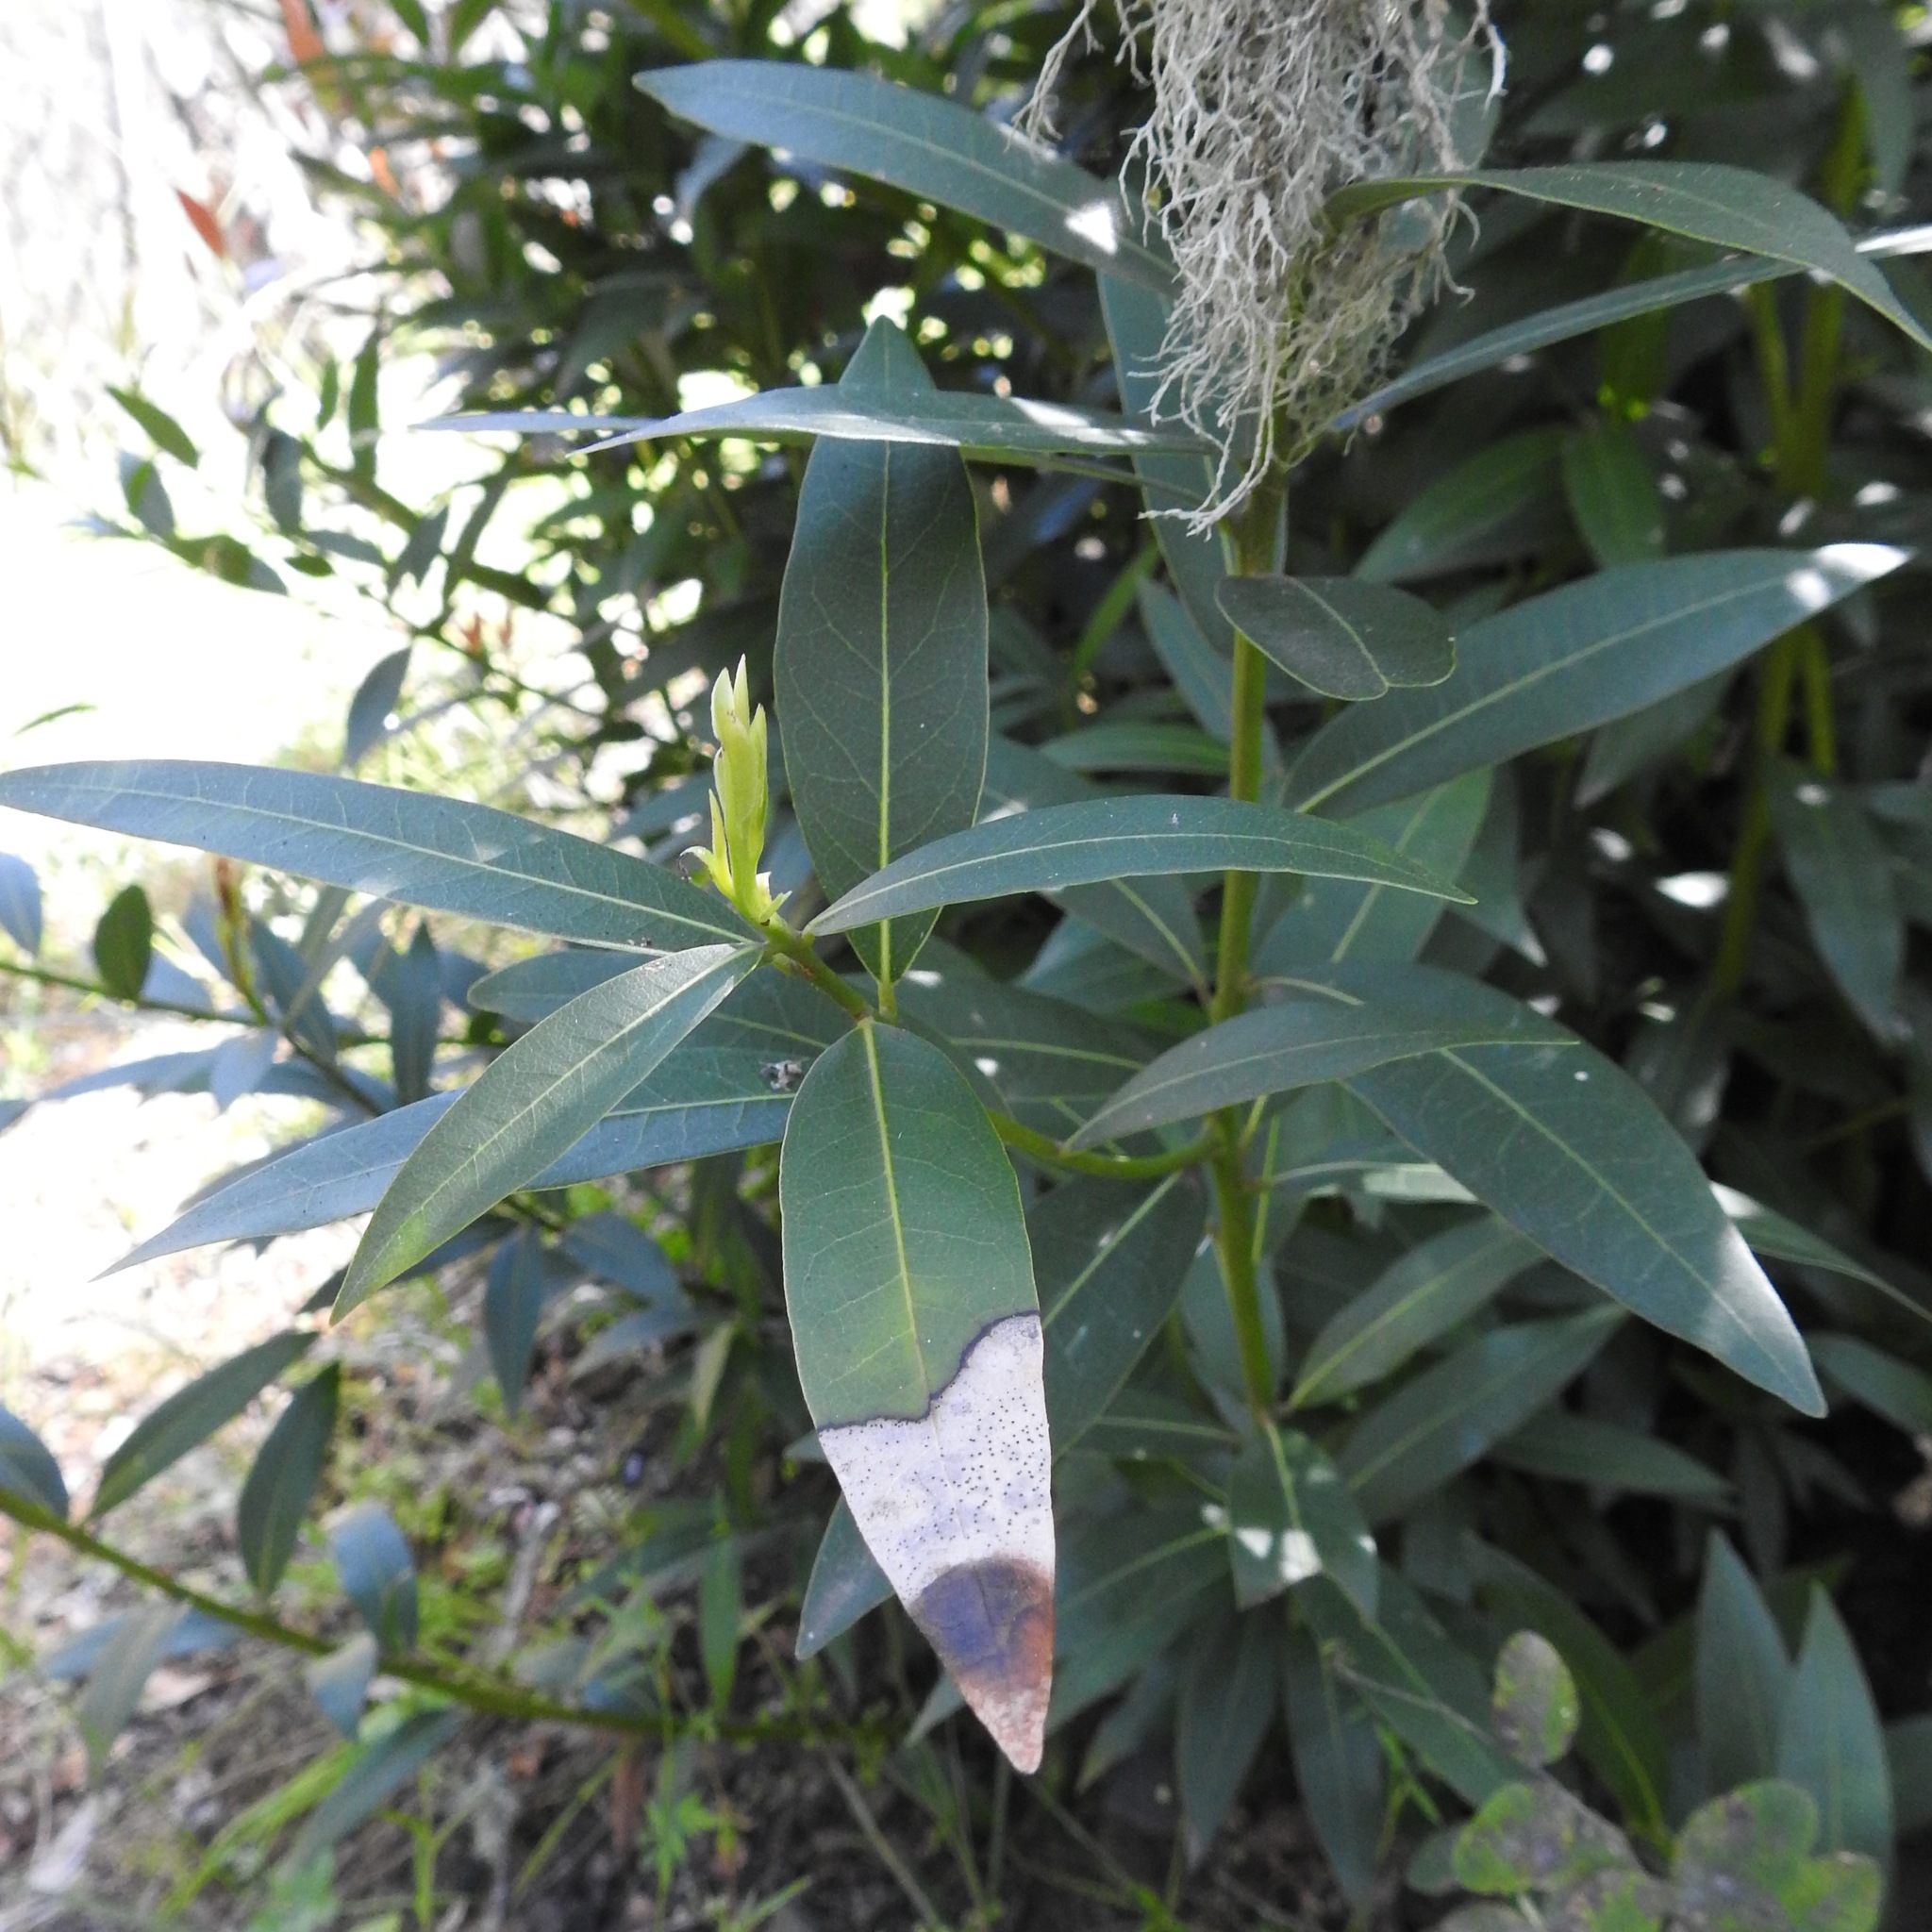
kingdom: Plantae
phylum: Tracheophyta
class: Magnoliopsida
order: Laurales
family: Lauraceae
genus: Umbellularia
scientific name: Umbellularia californica
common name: California bay
